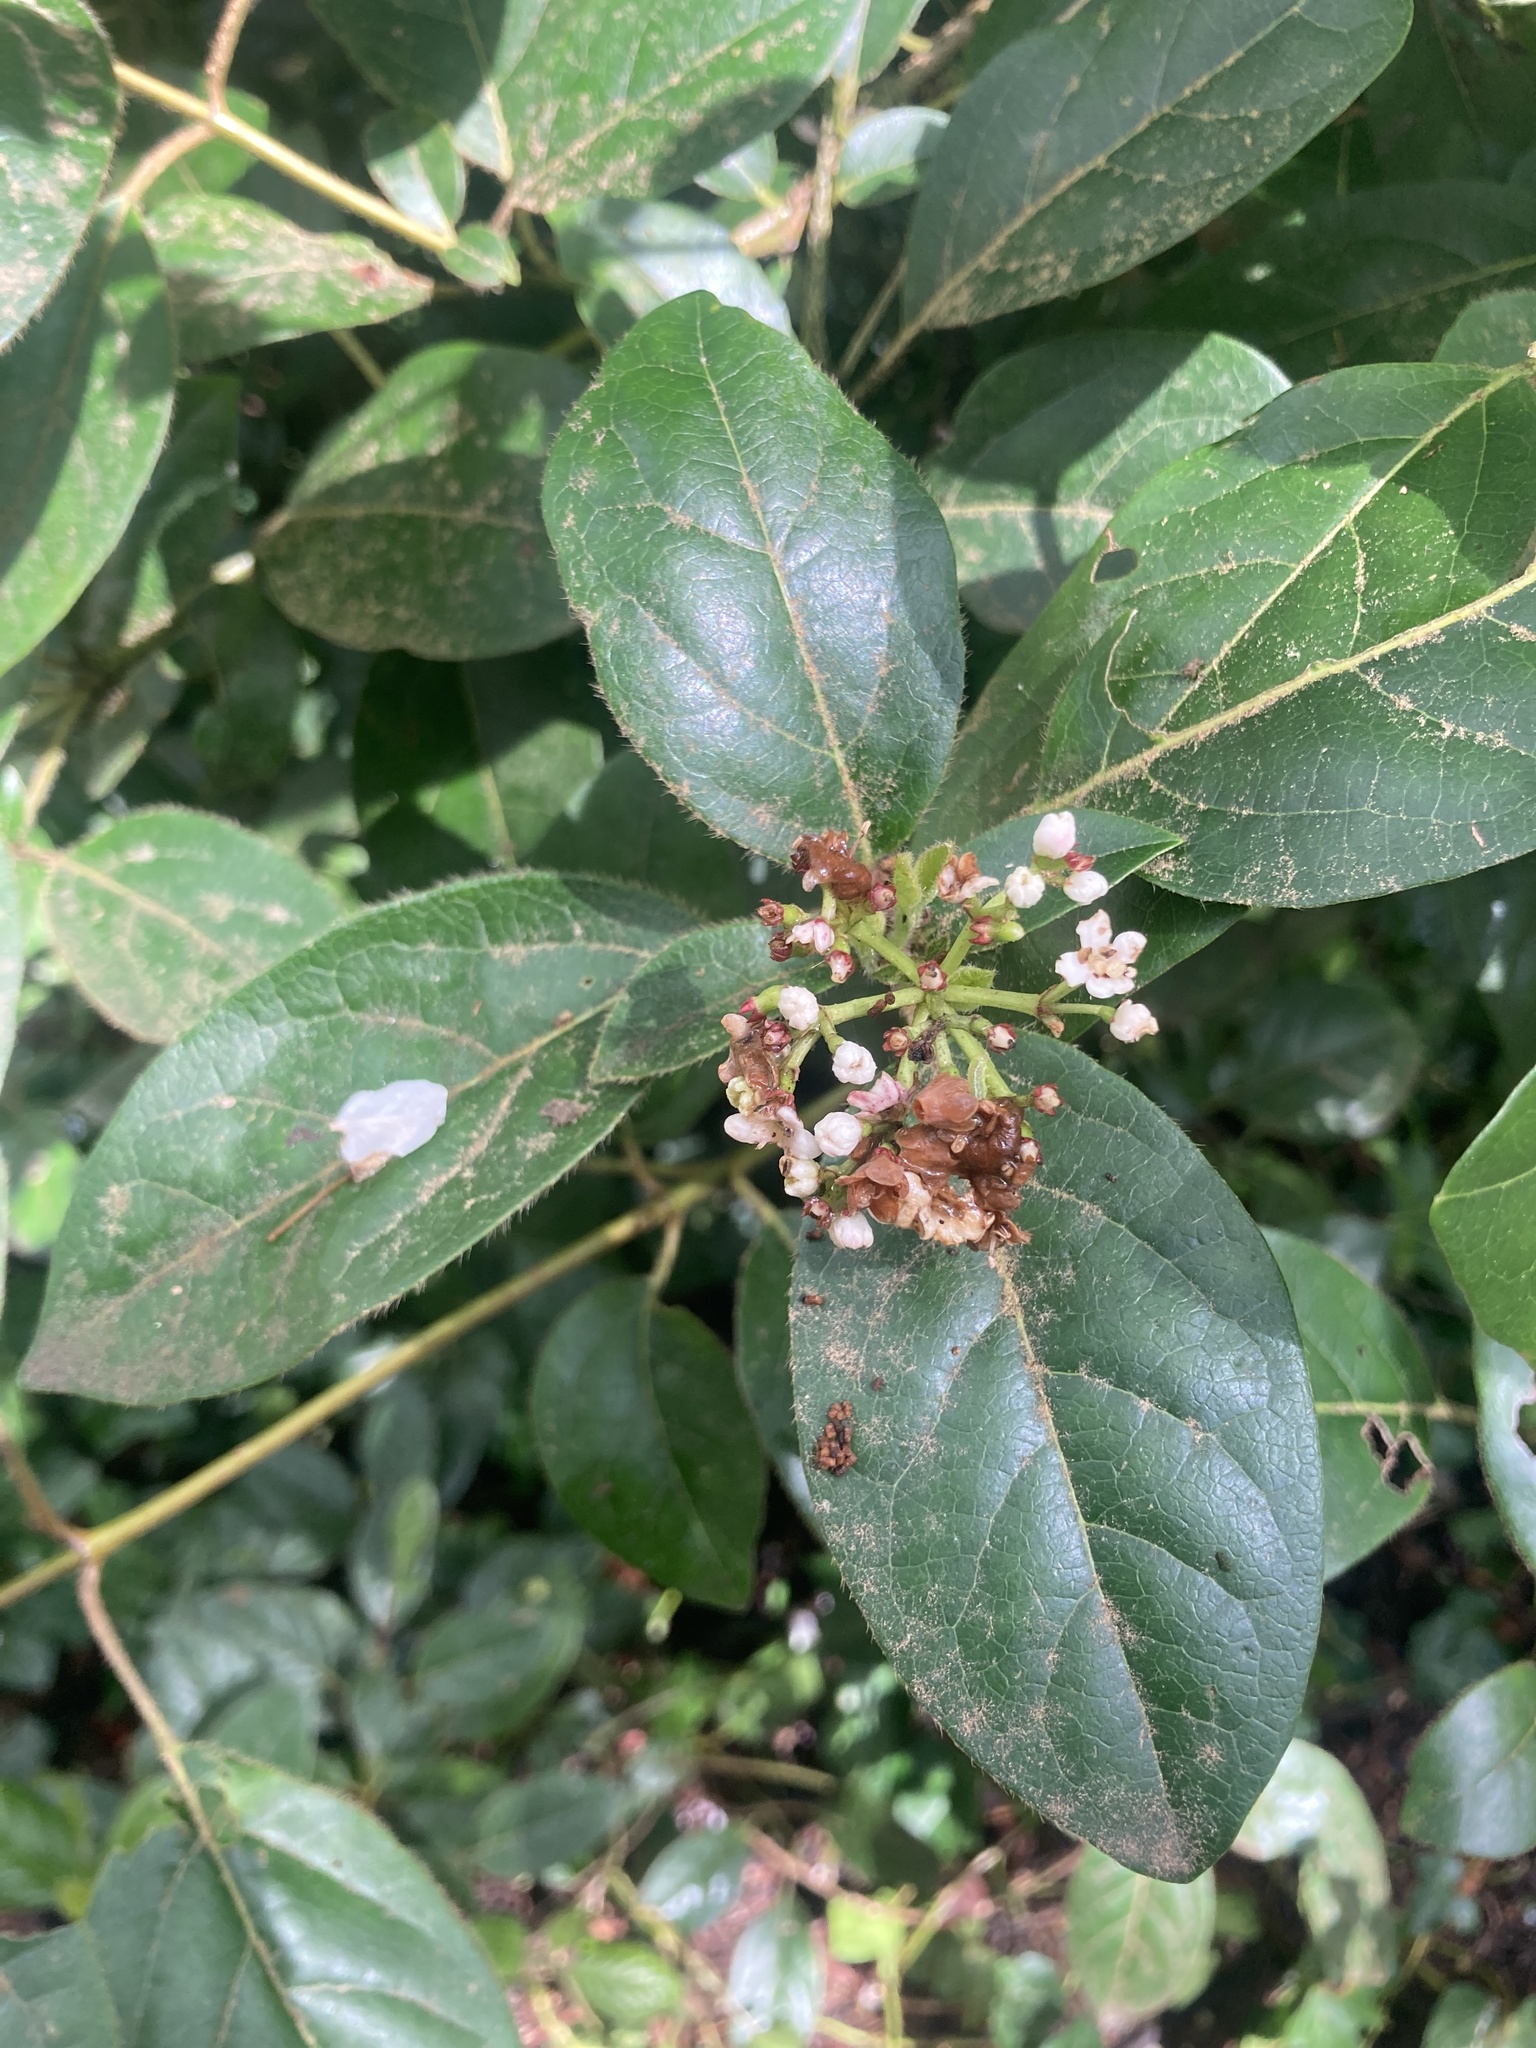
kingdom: Plantae
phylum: Tracheophyta
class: Magnoliopsida
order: Dipsacales
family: Viburnaceae
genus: Viburnum
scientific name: Viburnum tinus
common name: Laurustinus
